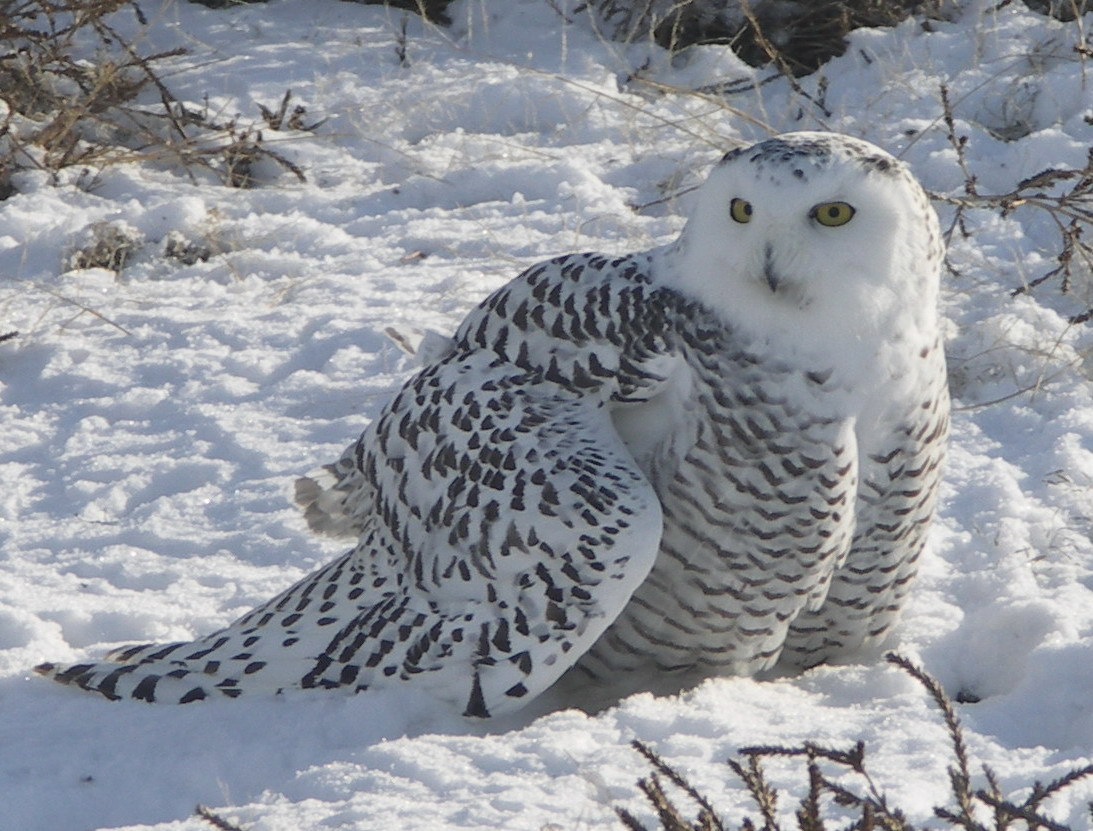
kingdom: Animalia
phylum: Chordata
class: Aves
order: Strigiformes
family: Strigidae
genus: Bubo
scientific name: Bubo scandiacus
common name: Snowy owl
